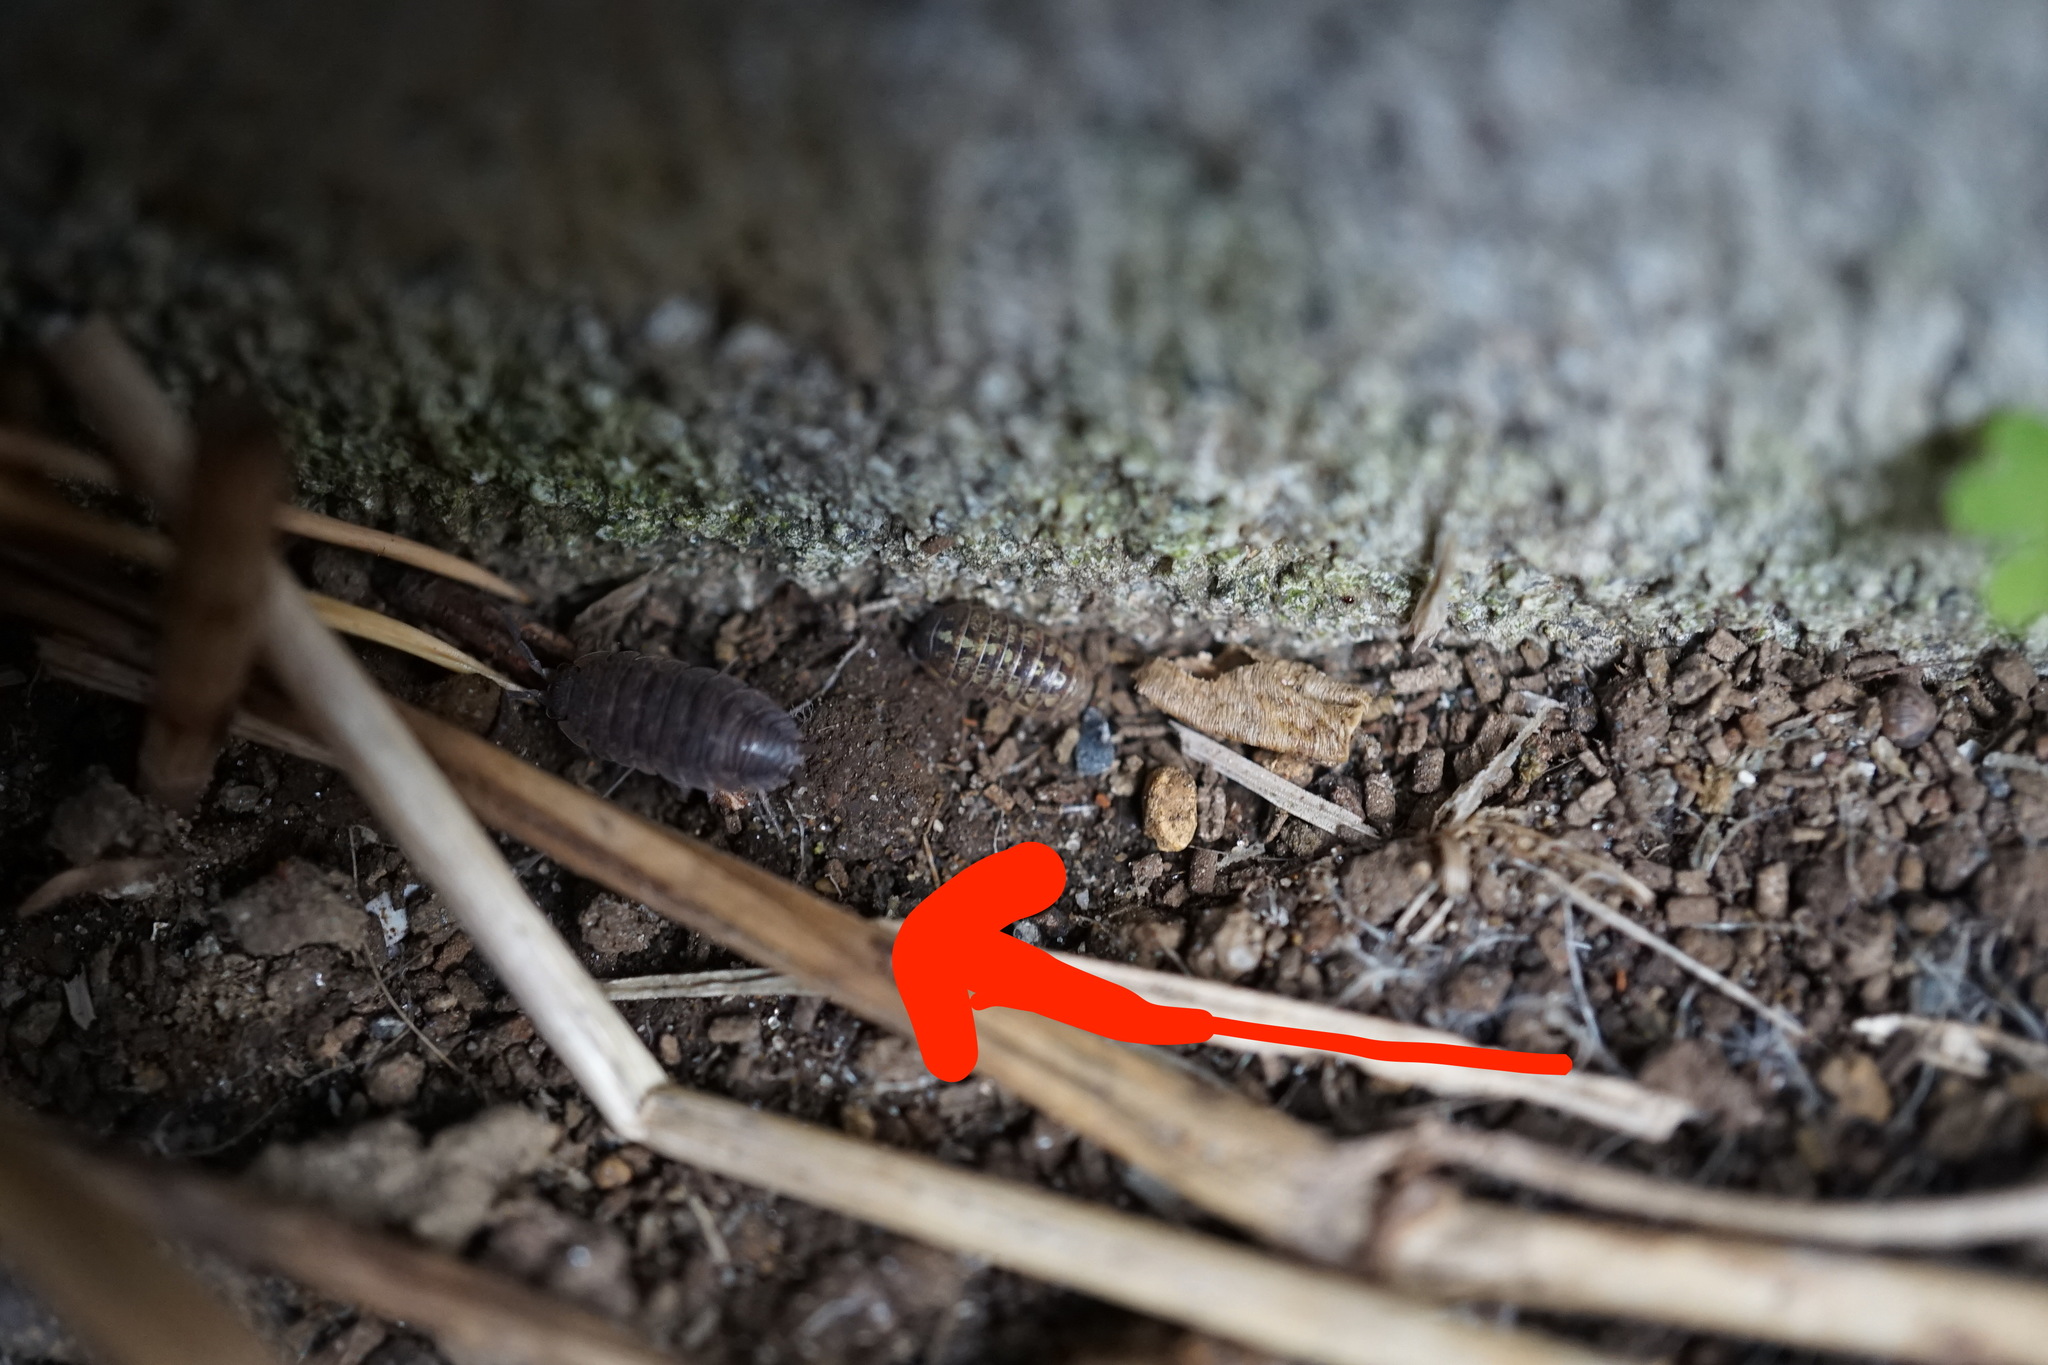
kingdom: Animalia
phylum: Arthropoda
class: Malacostraca
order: Isopoda
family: Porcellionidae
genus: Porcellio
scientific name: Porcellio scaber
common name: Common rough woodlouse
